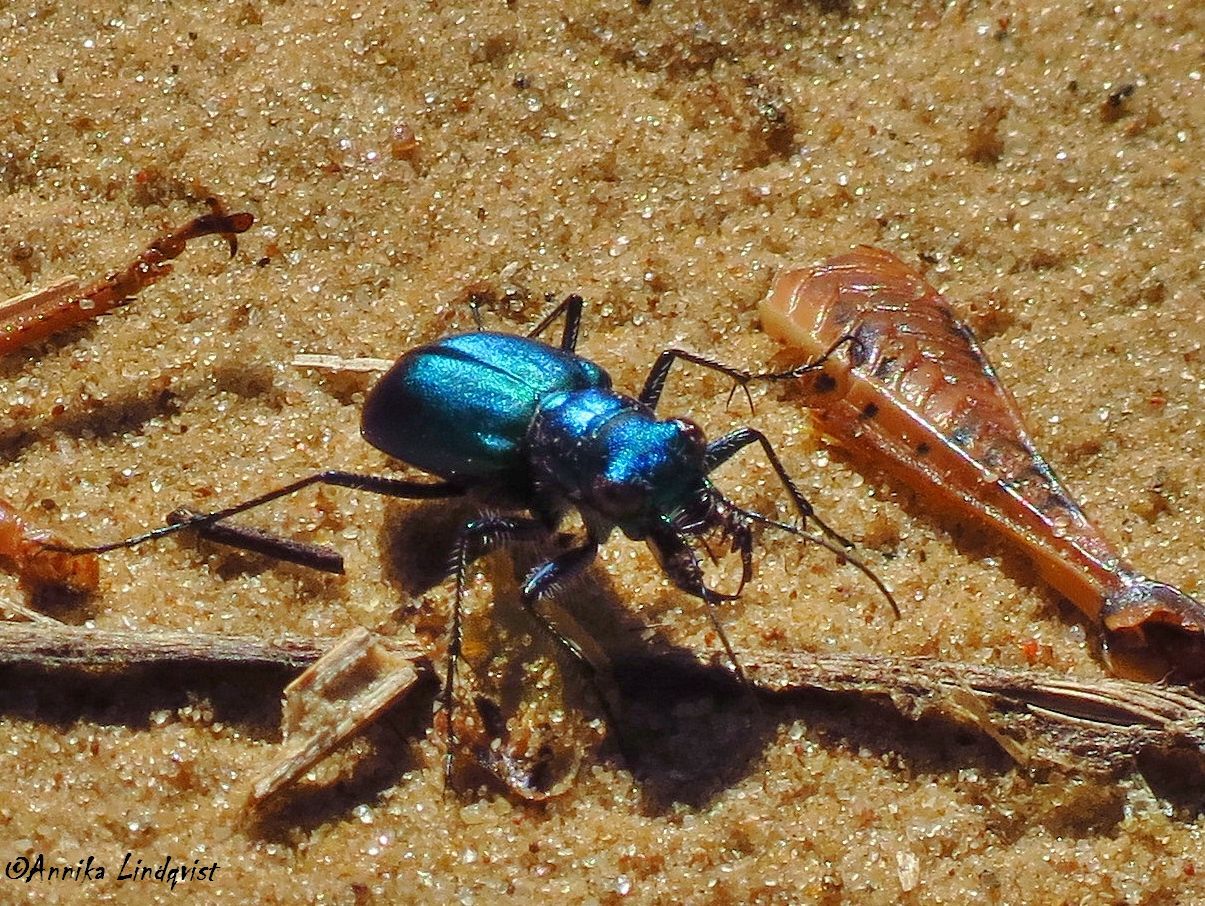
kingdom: Animalia
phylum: Arthropoda
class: Insecta
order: Coleoptera
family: Carabidae
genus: Cicindela
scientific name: Cicindela scutellaris
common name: Festive tiger beetle
